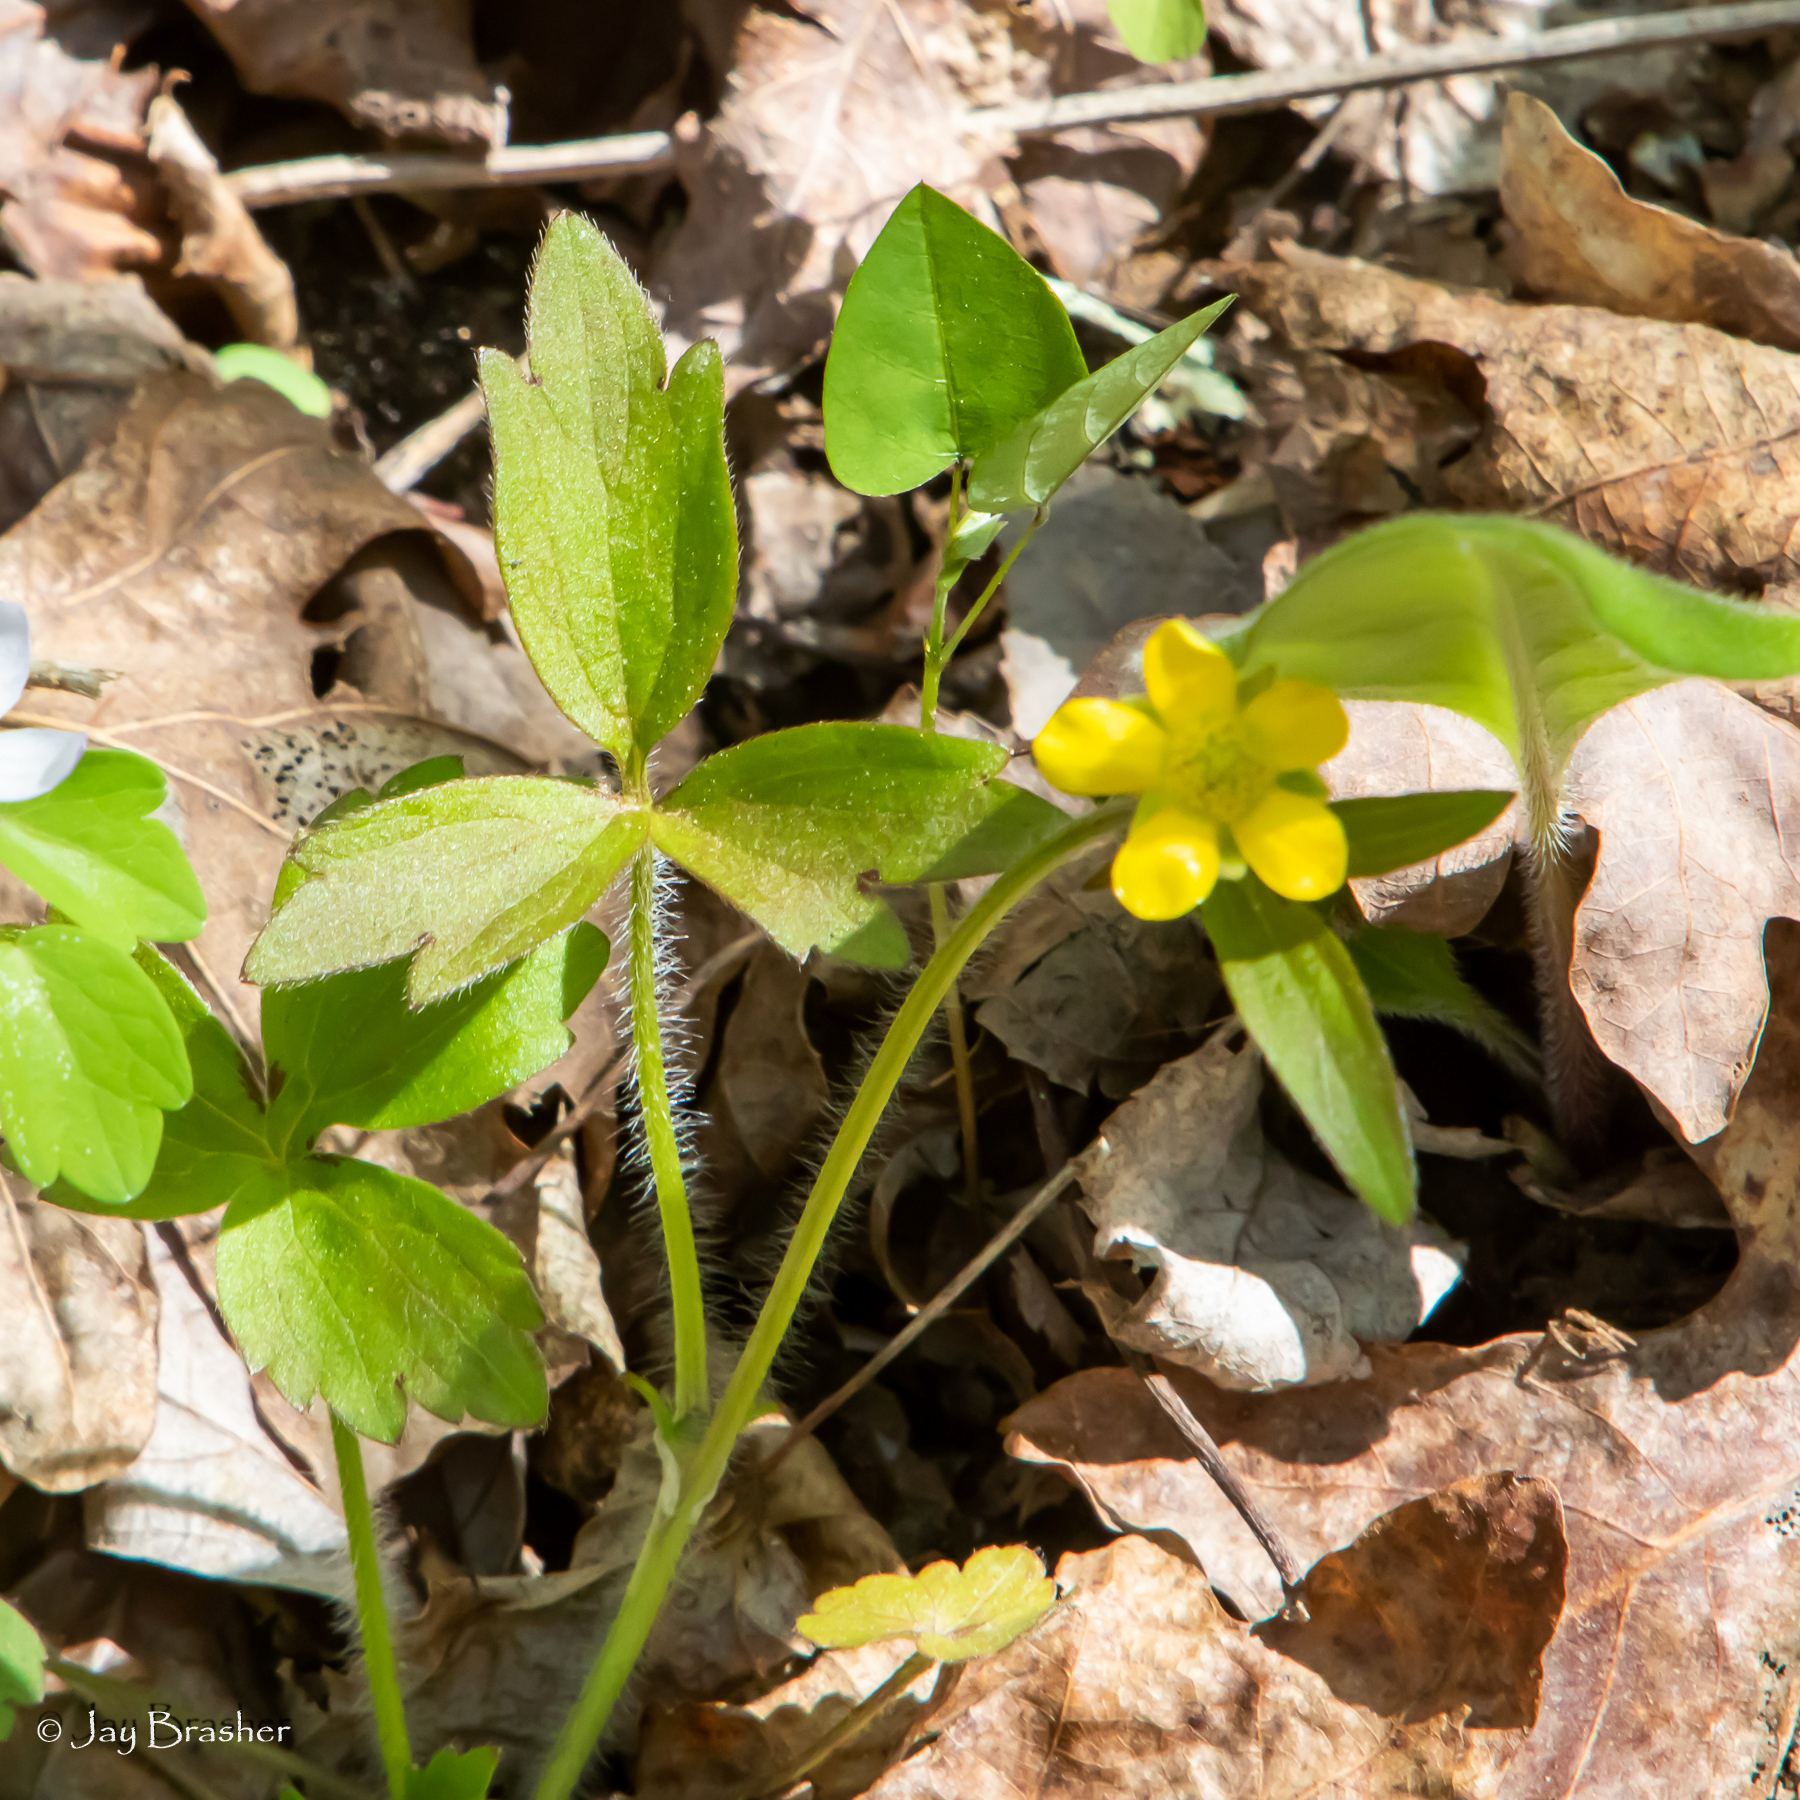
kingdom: Plantae
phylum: Tracheophyta
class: Magnoliopsida
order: Ranunculales
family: Ranunculaceae
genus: Ranunculus
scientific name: Ranunculus fascicularis
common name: Early buttercup
